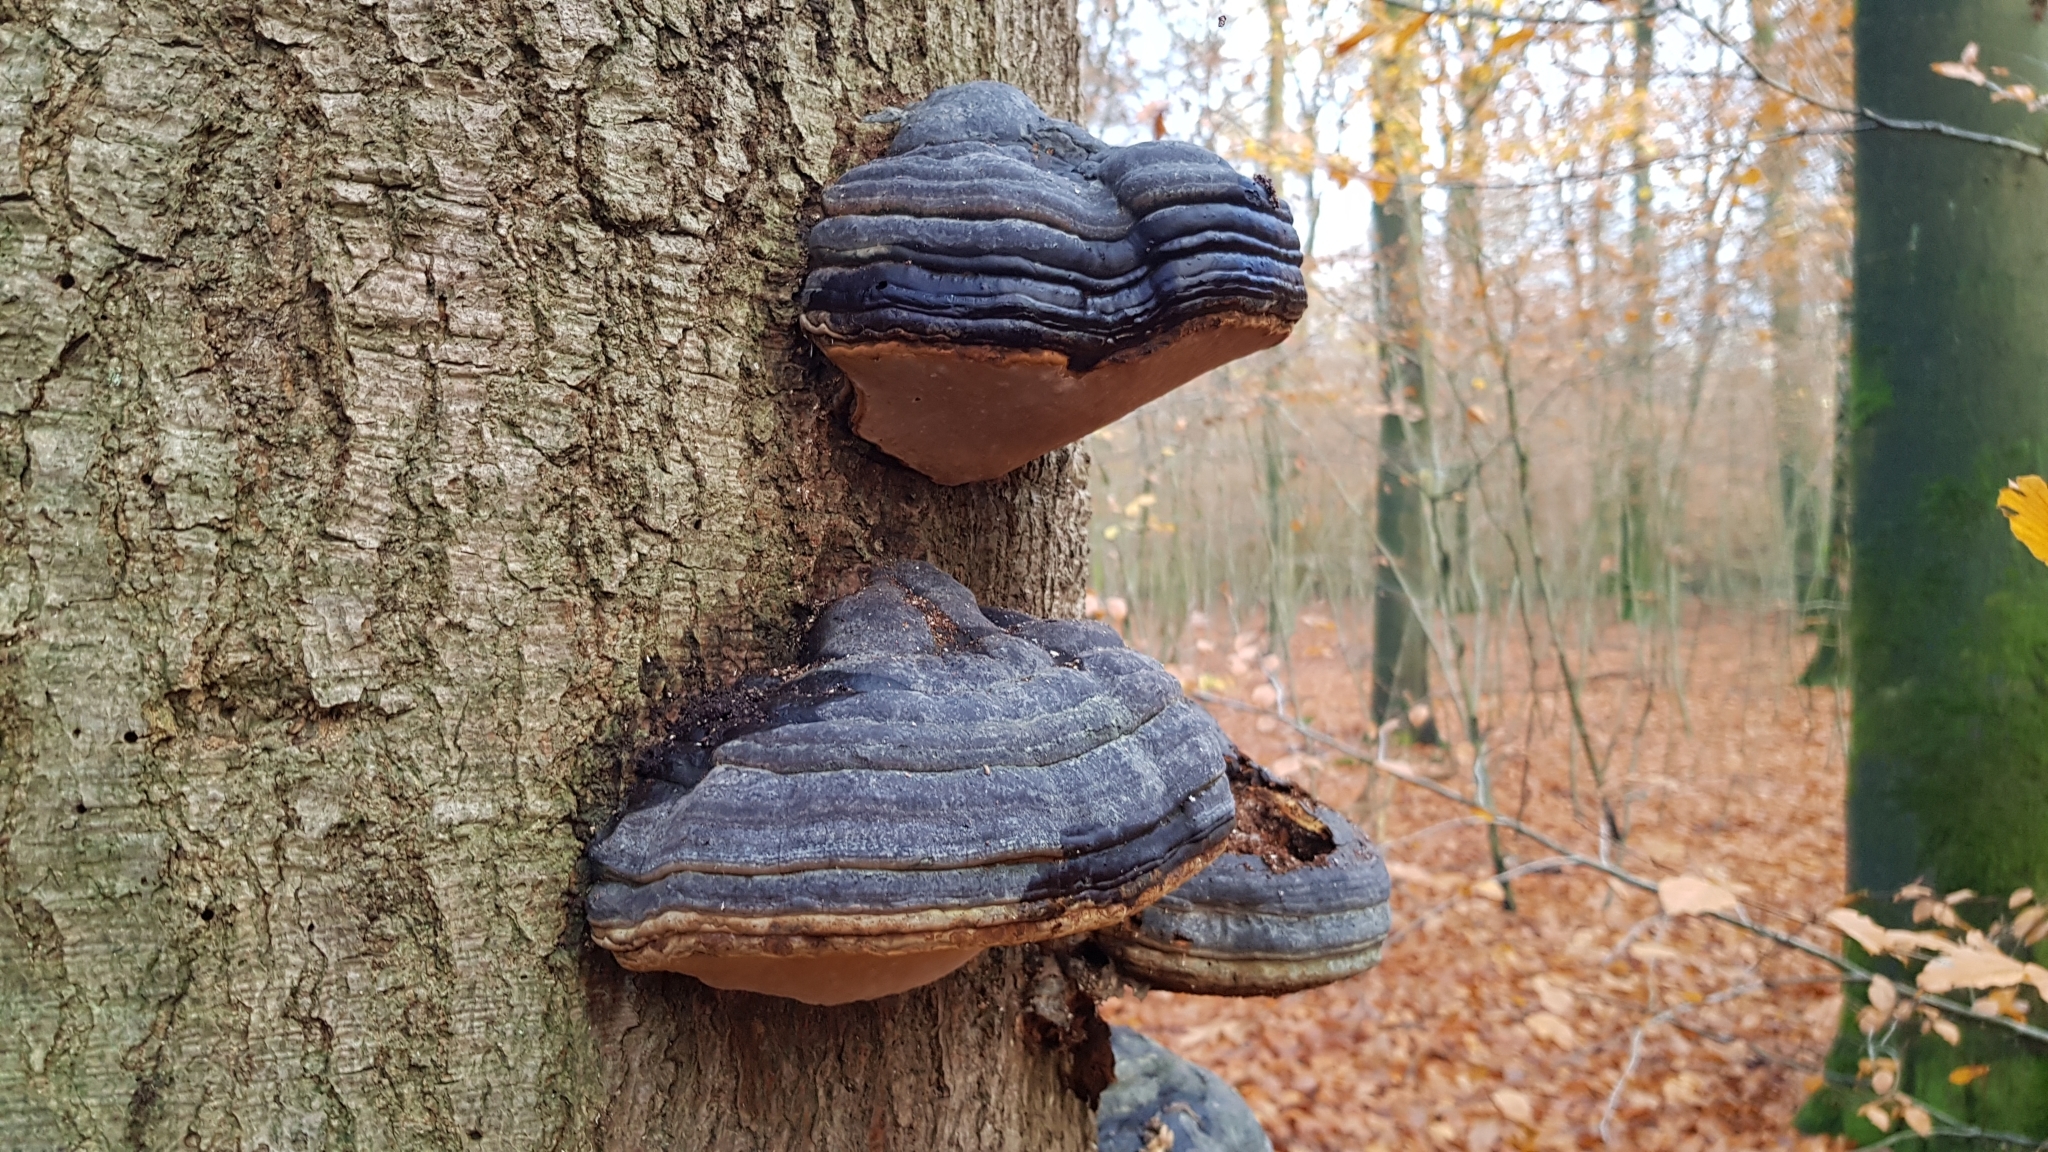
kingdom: Fungi
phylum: Basidiomycota
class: Agaricomycetes
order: Polyporales
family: Polyporaceae
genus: Fomes
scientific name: Fomes fomentarius
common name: Hoof fungus
